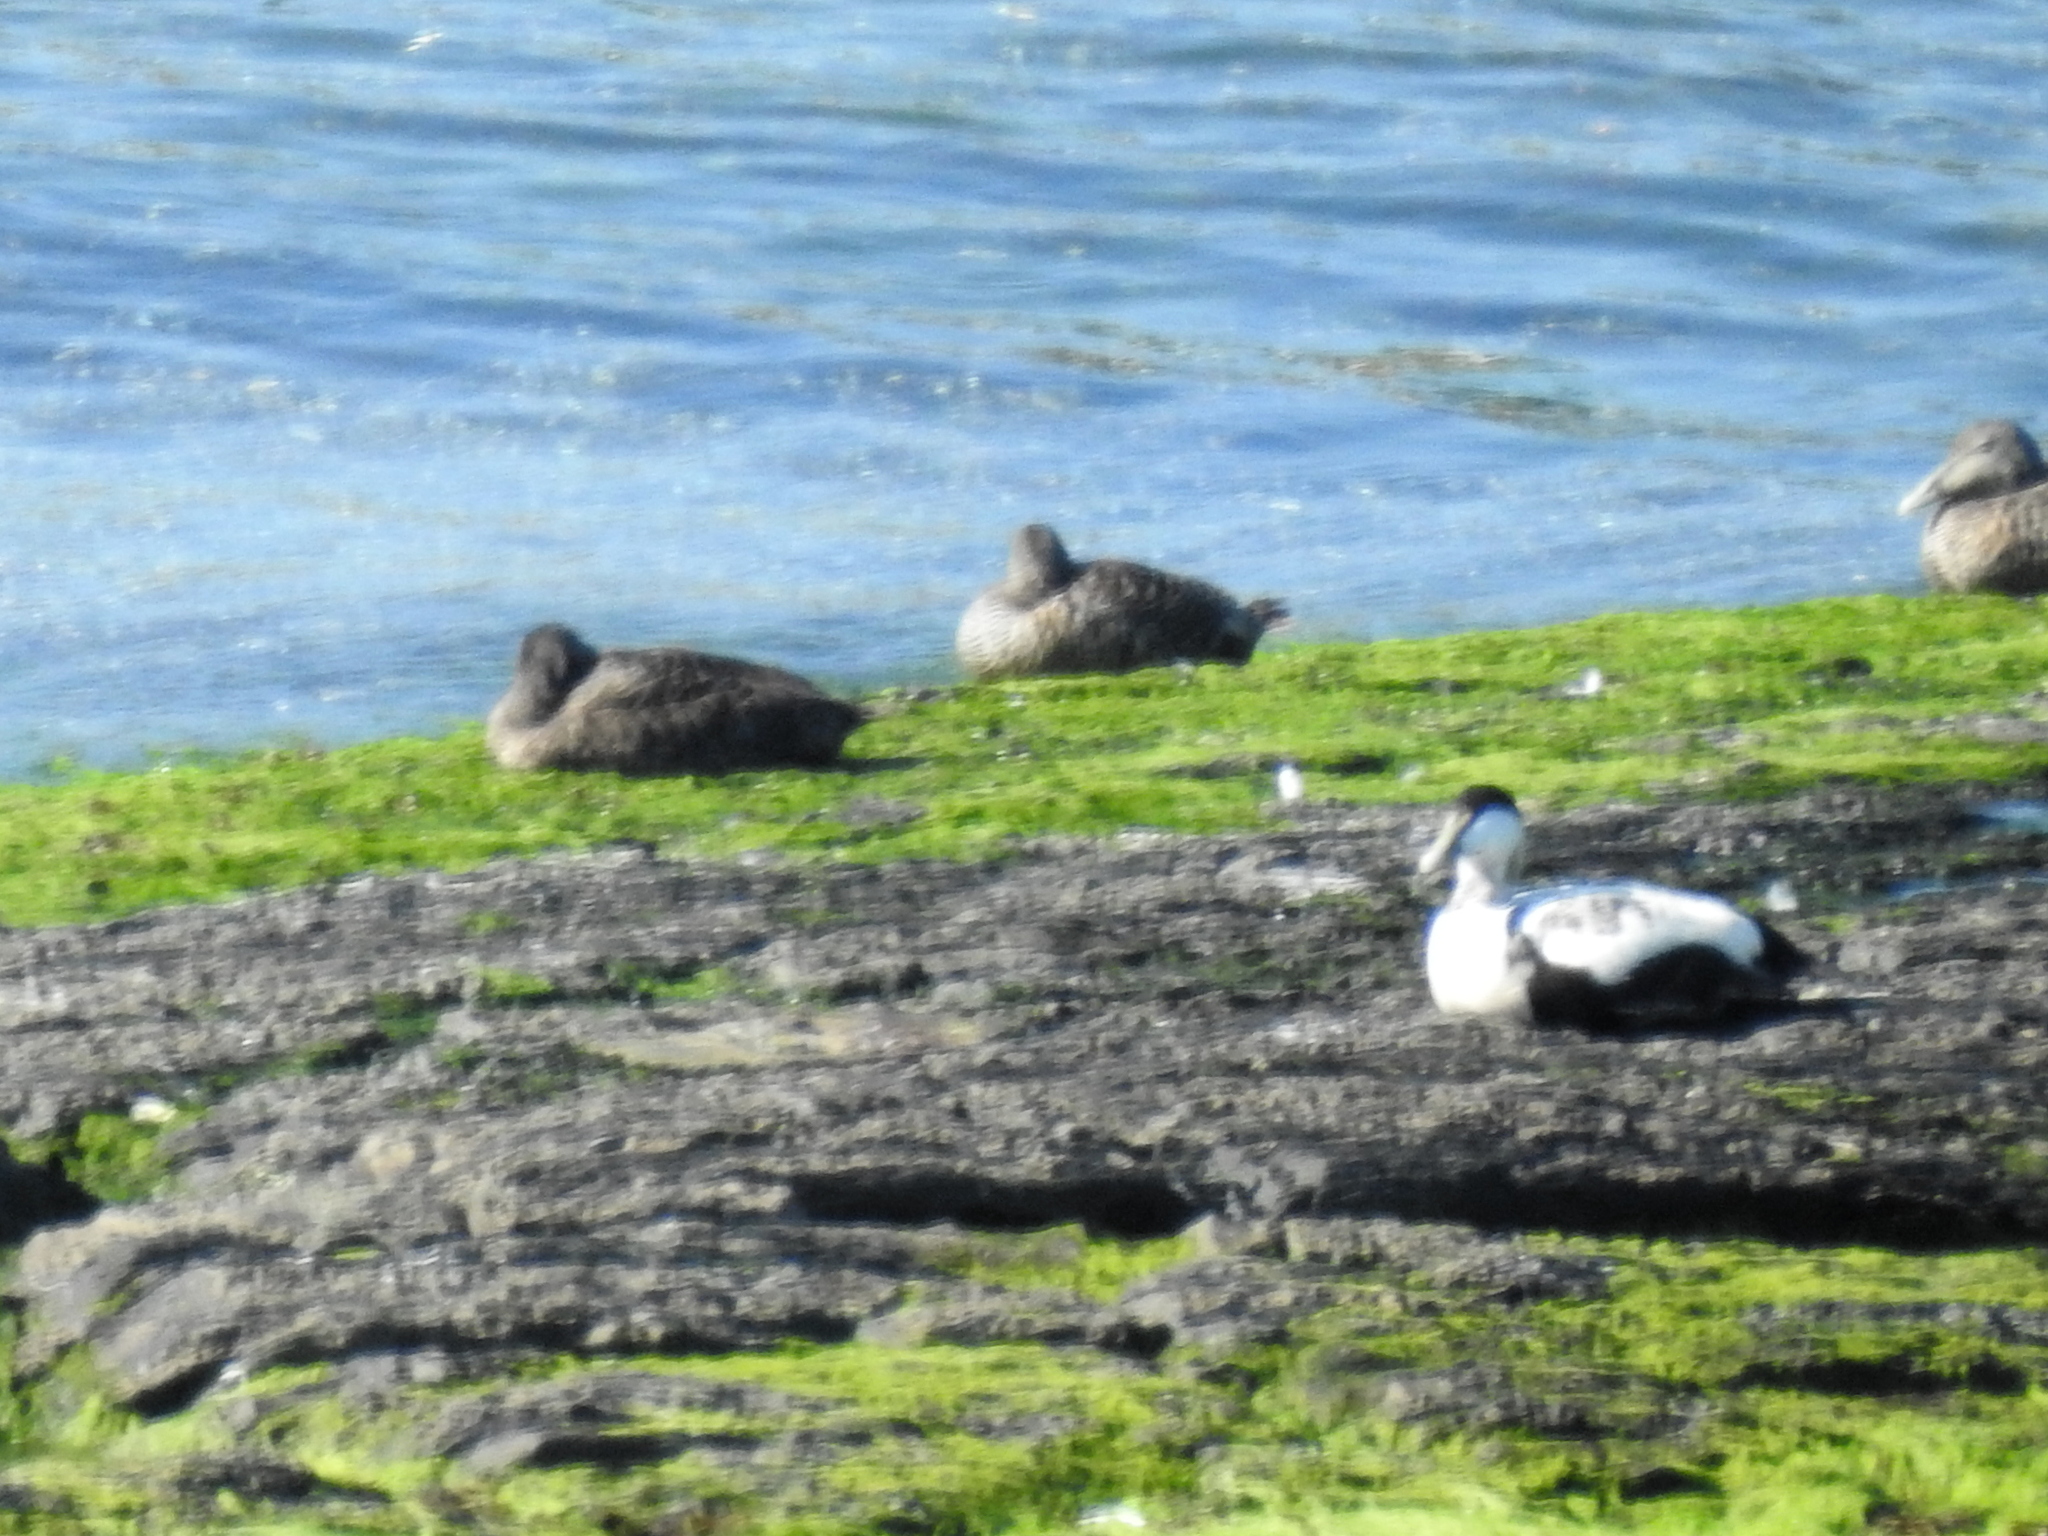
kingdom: Animalia
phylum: Chordata
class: Aves
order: Anseriformes
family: Anatidae
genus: Somateria
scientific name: Somateria mollissima
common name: Common eider
